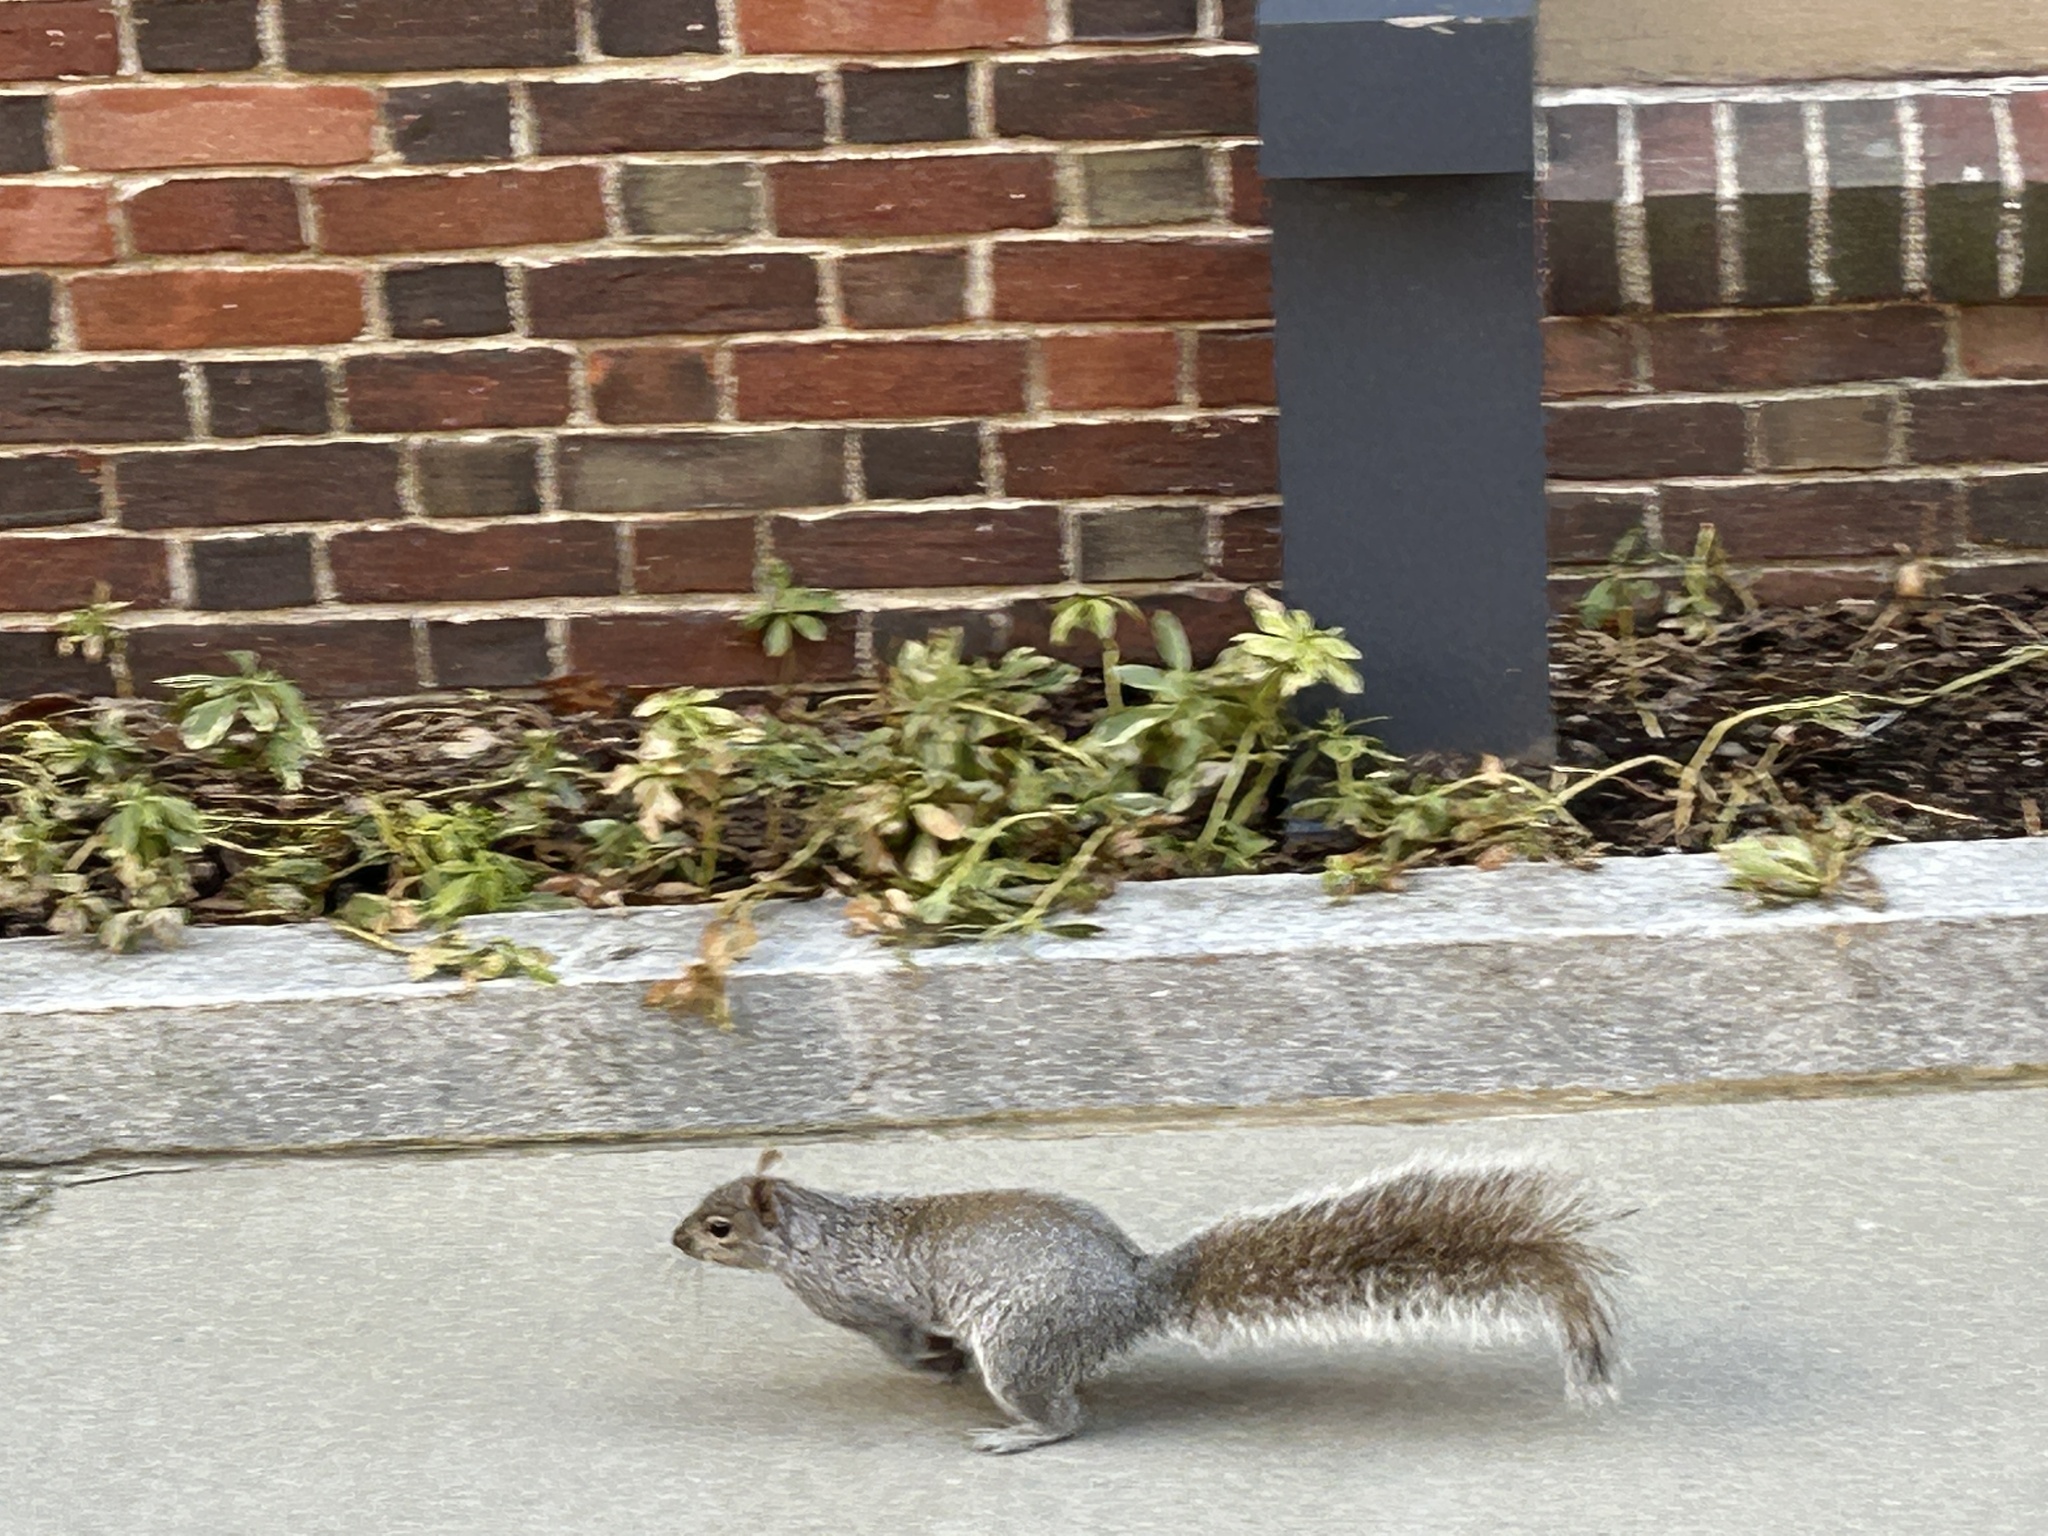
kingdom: Animalia
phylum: Chordata
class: Mammalia
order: Rodentia
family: Sciuridae
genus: Sciurus
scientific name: Sciurus carolinensis
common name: Eastern gray squirrel
